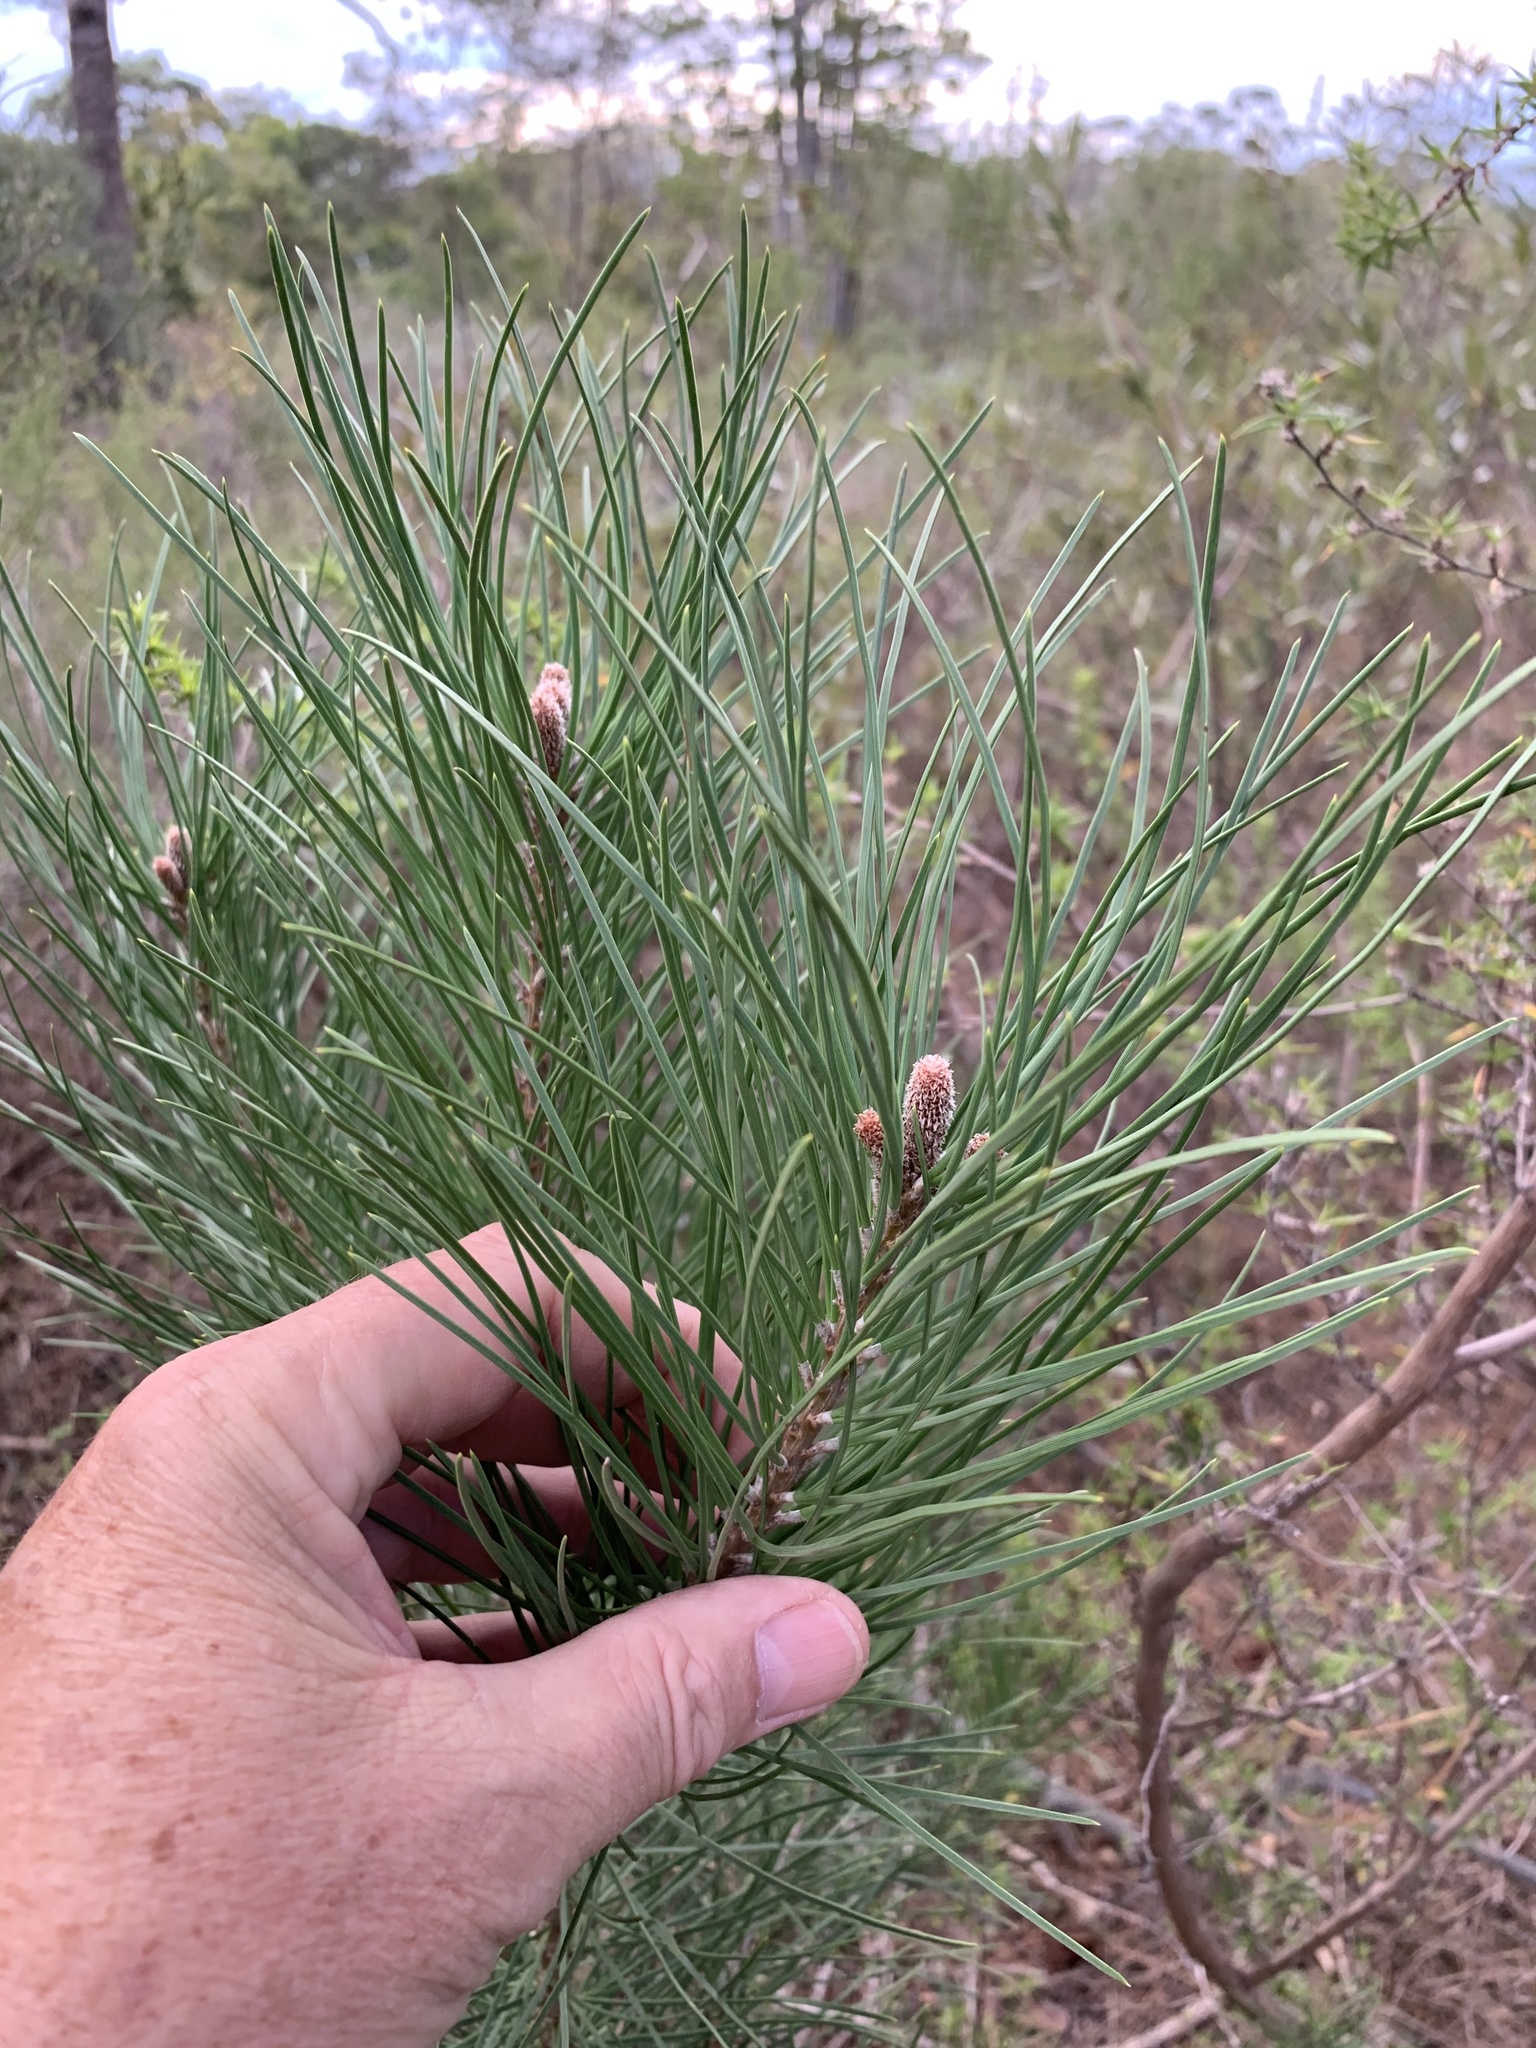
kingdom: Plantae
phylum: Tracheophyta
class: Pinopsida
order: Pinales
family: Pinaceae
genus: Pinus
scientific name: Pinus pinaster
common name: Maritime pine
